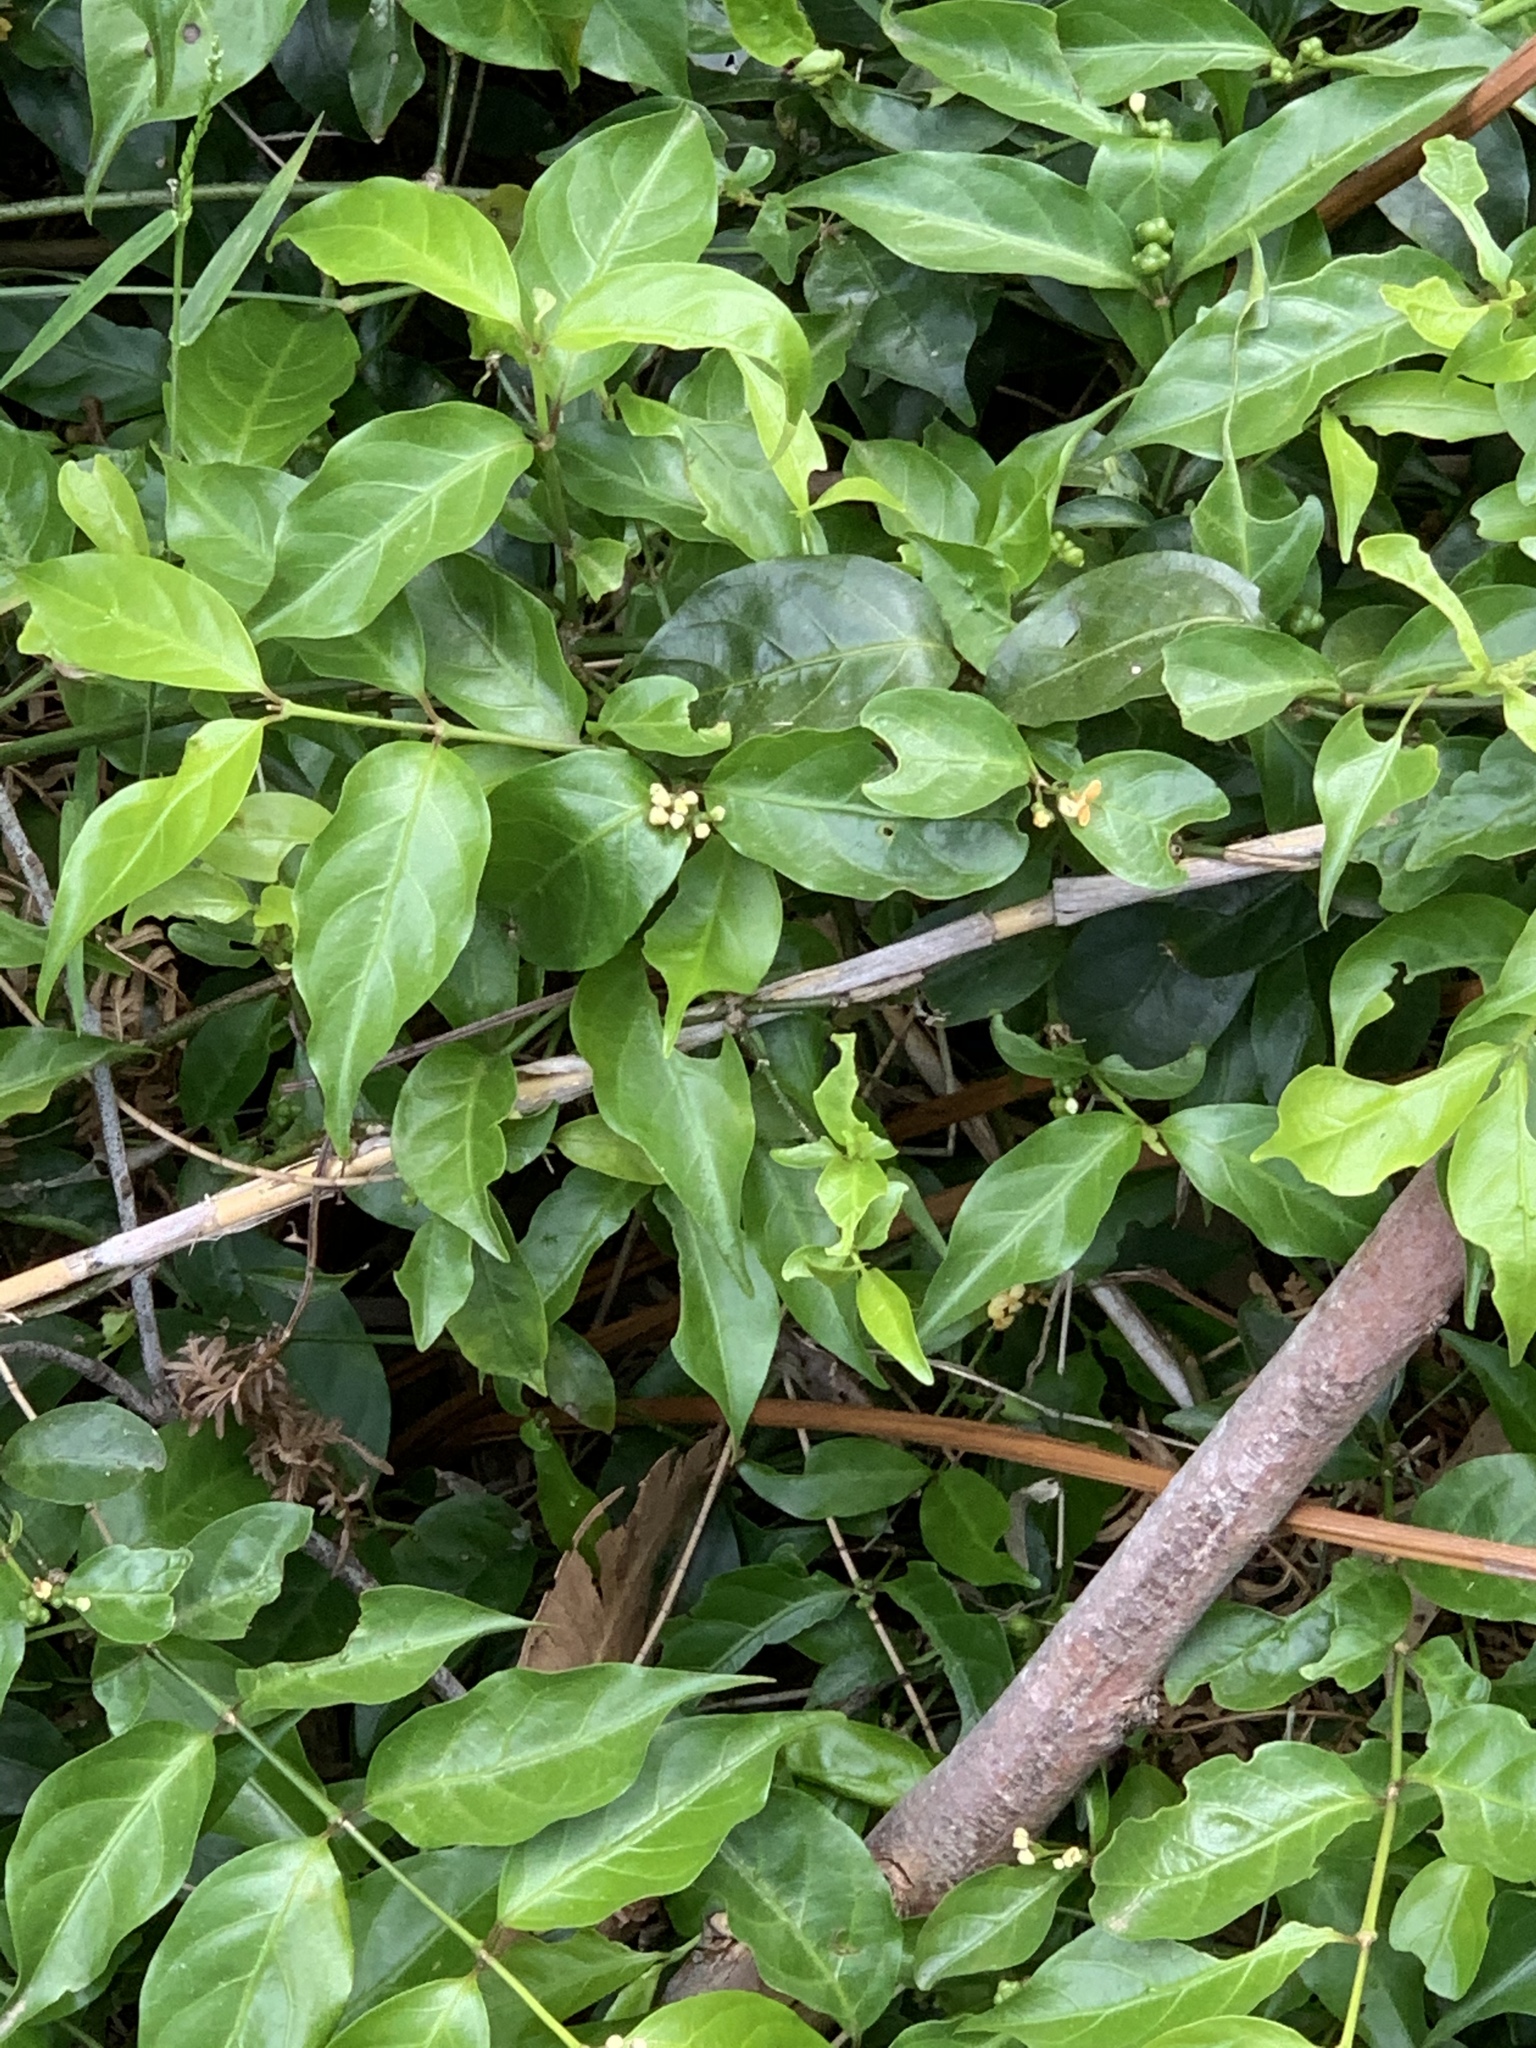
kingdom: Plantae
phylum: Tracheophyta
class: Magnoliopsida
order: Gentianales
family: Rubiaceae
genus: Gynochthodes
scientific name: Gynochthodes jasminoides
